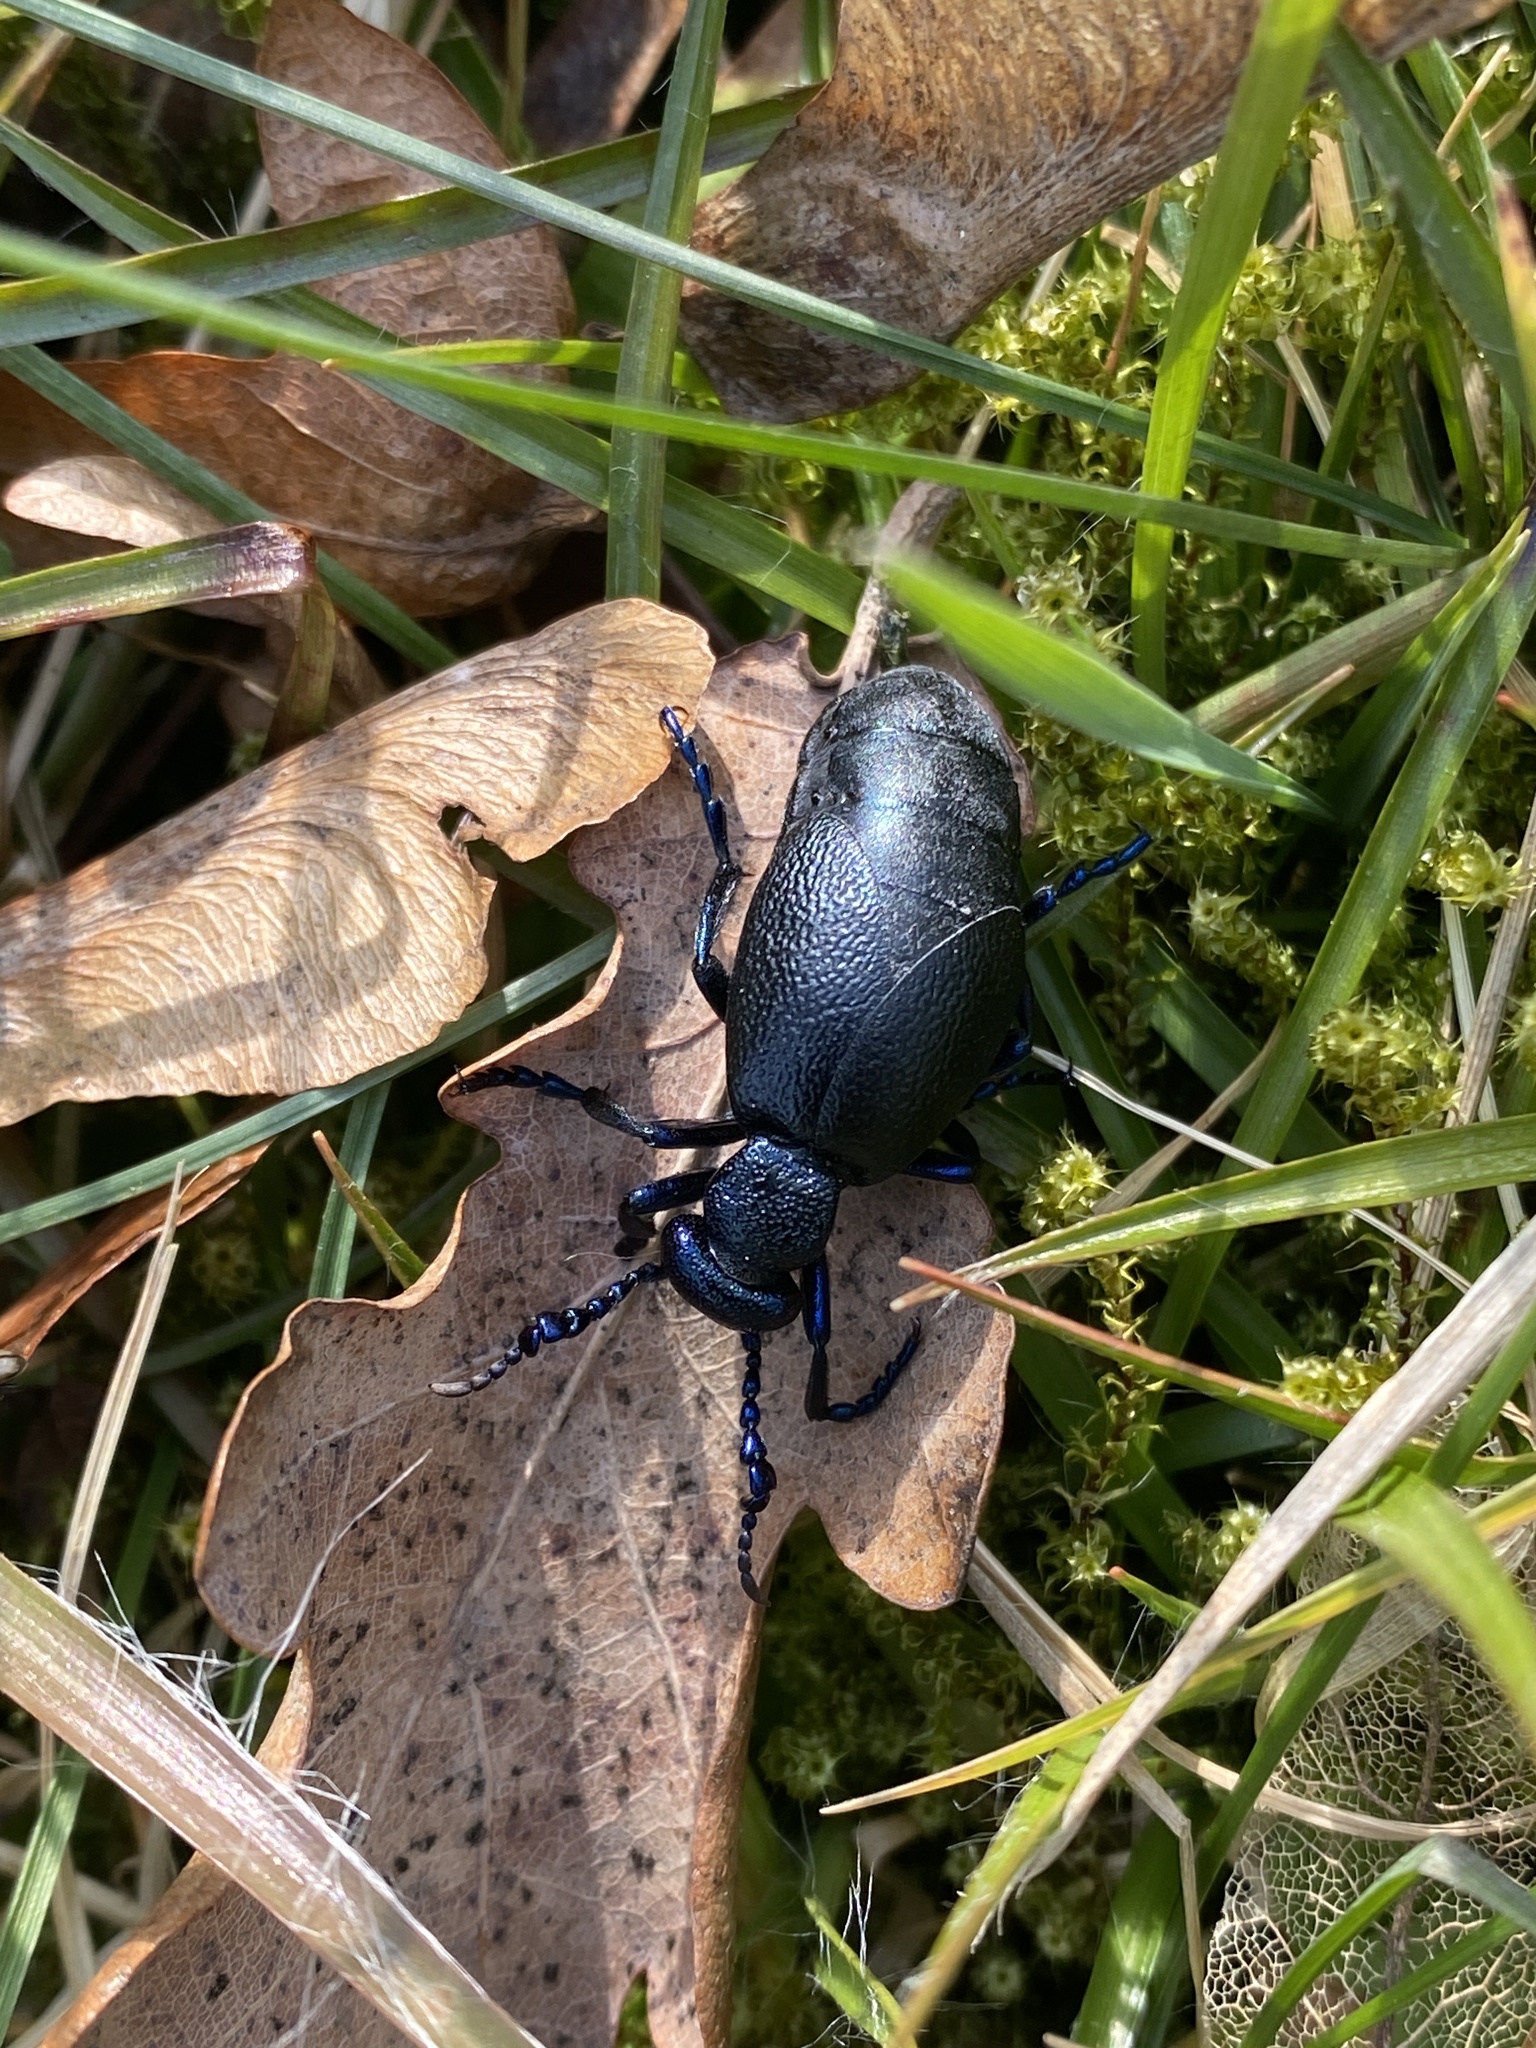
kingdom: Animalia
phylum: Arthropoda
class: Insecta
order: Coleoptera
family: Meloidae
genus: Meloe
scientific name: Meloe proscarabaeus
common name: Black oil-beetle
